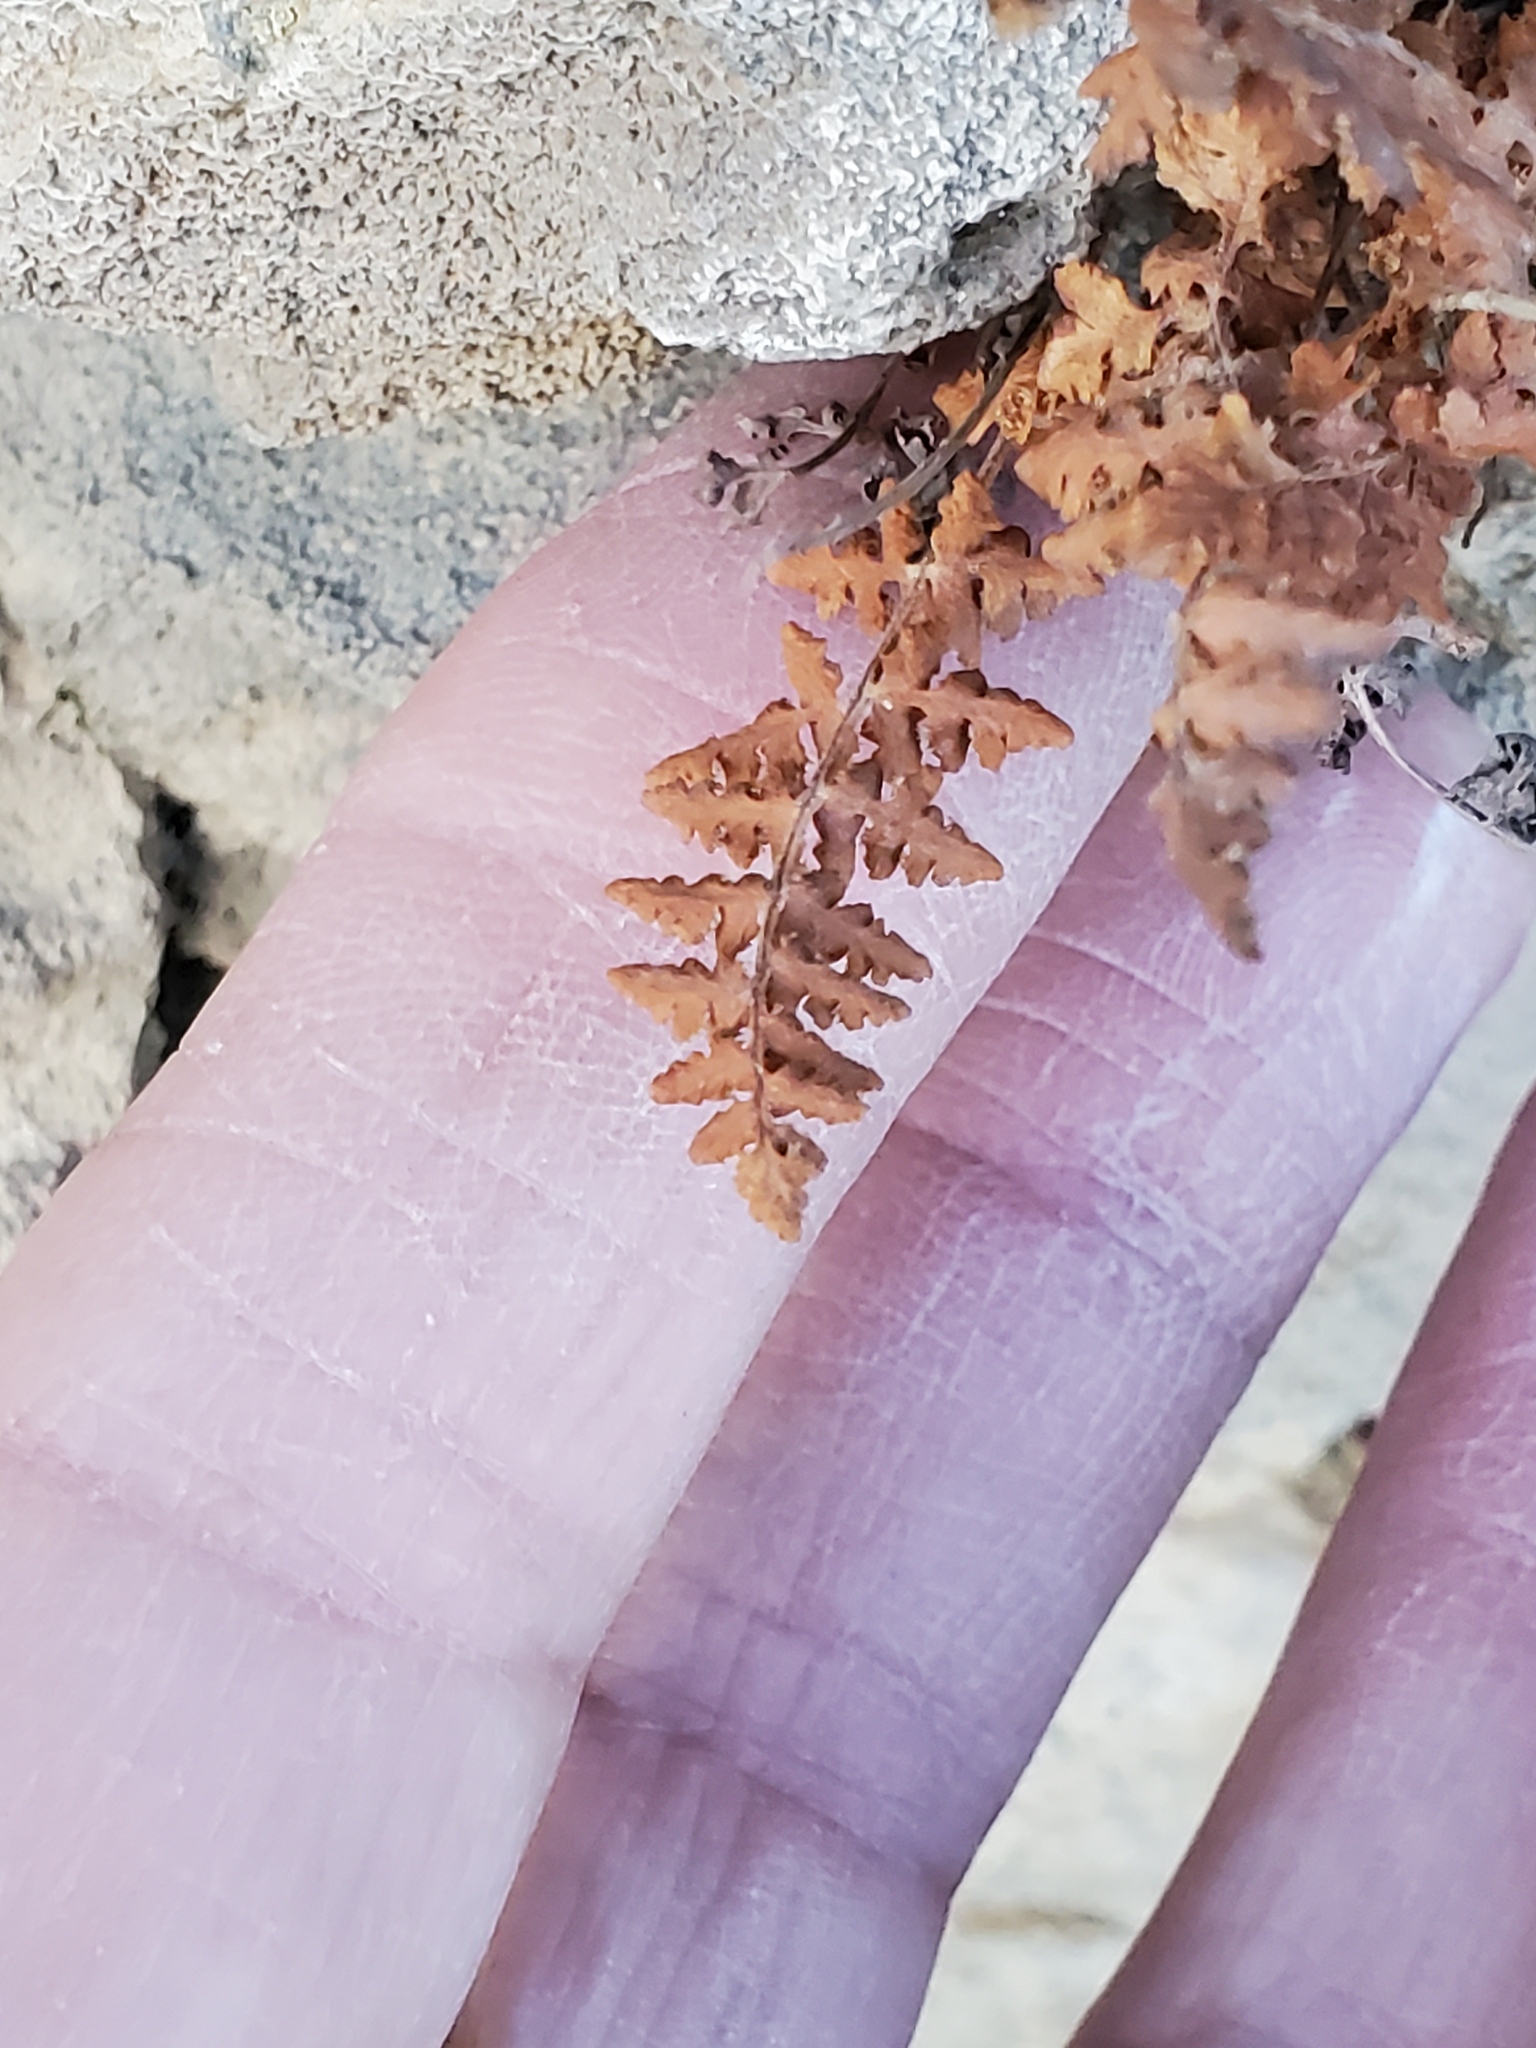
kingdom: Plantae
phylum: Tracheophyta
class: Polypodiopsida
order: Polypodiales
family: Woodsiaceae
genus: Physematium
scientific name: Physematium oreganum
